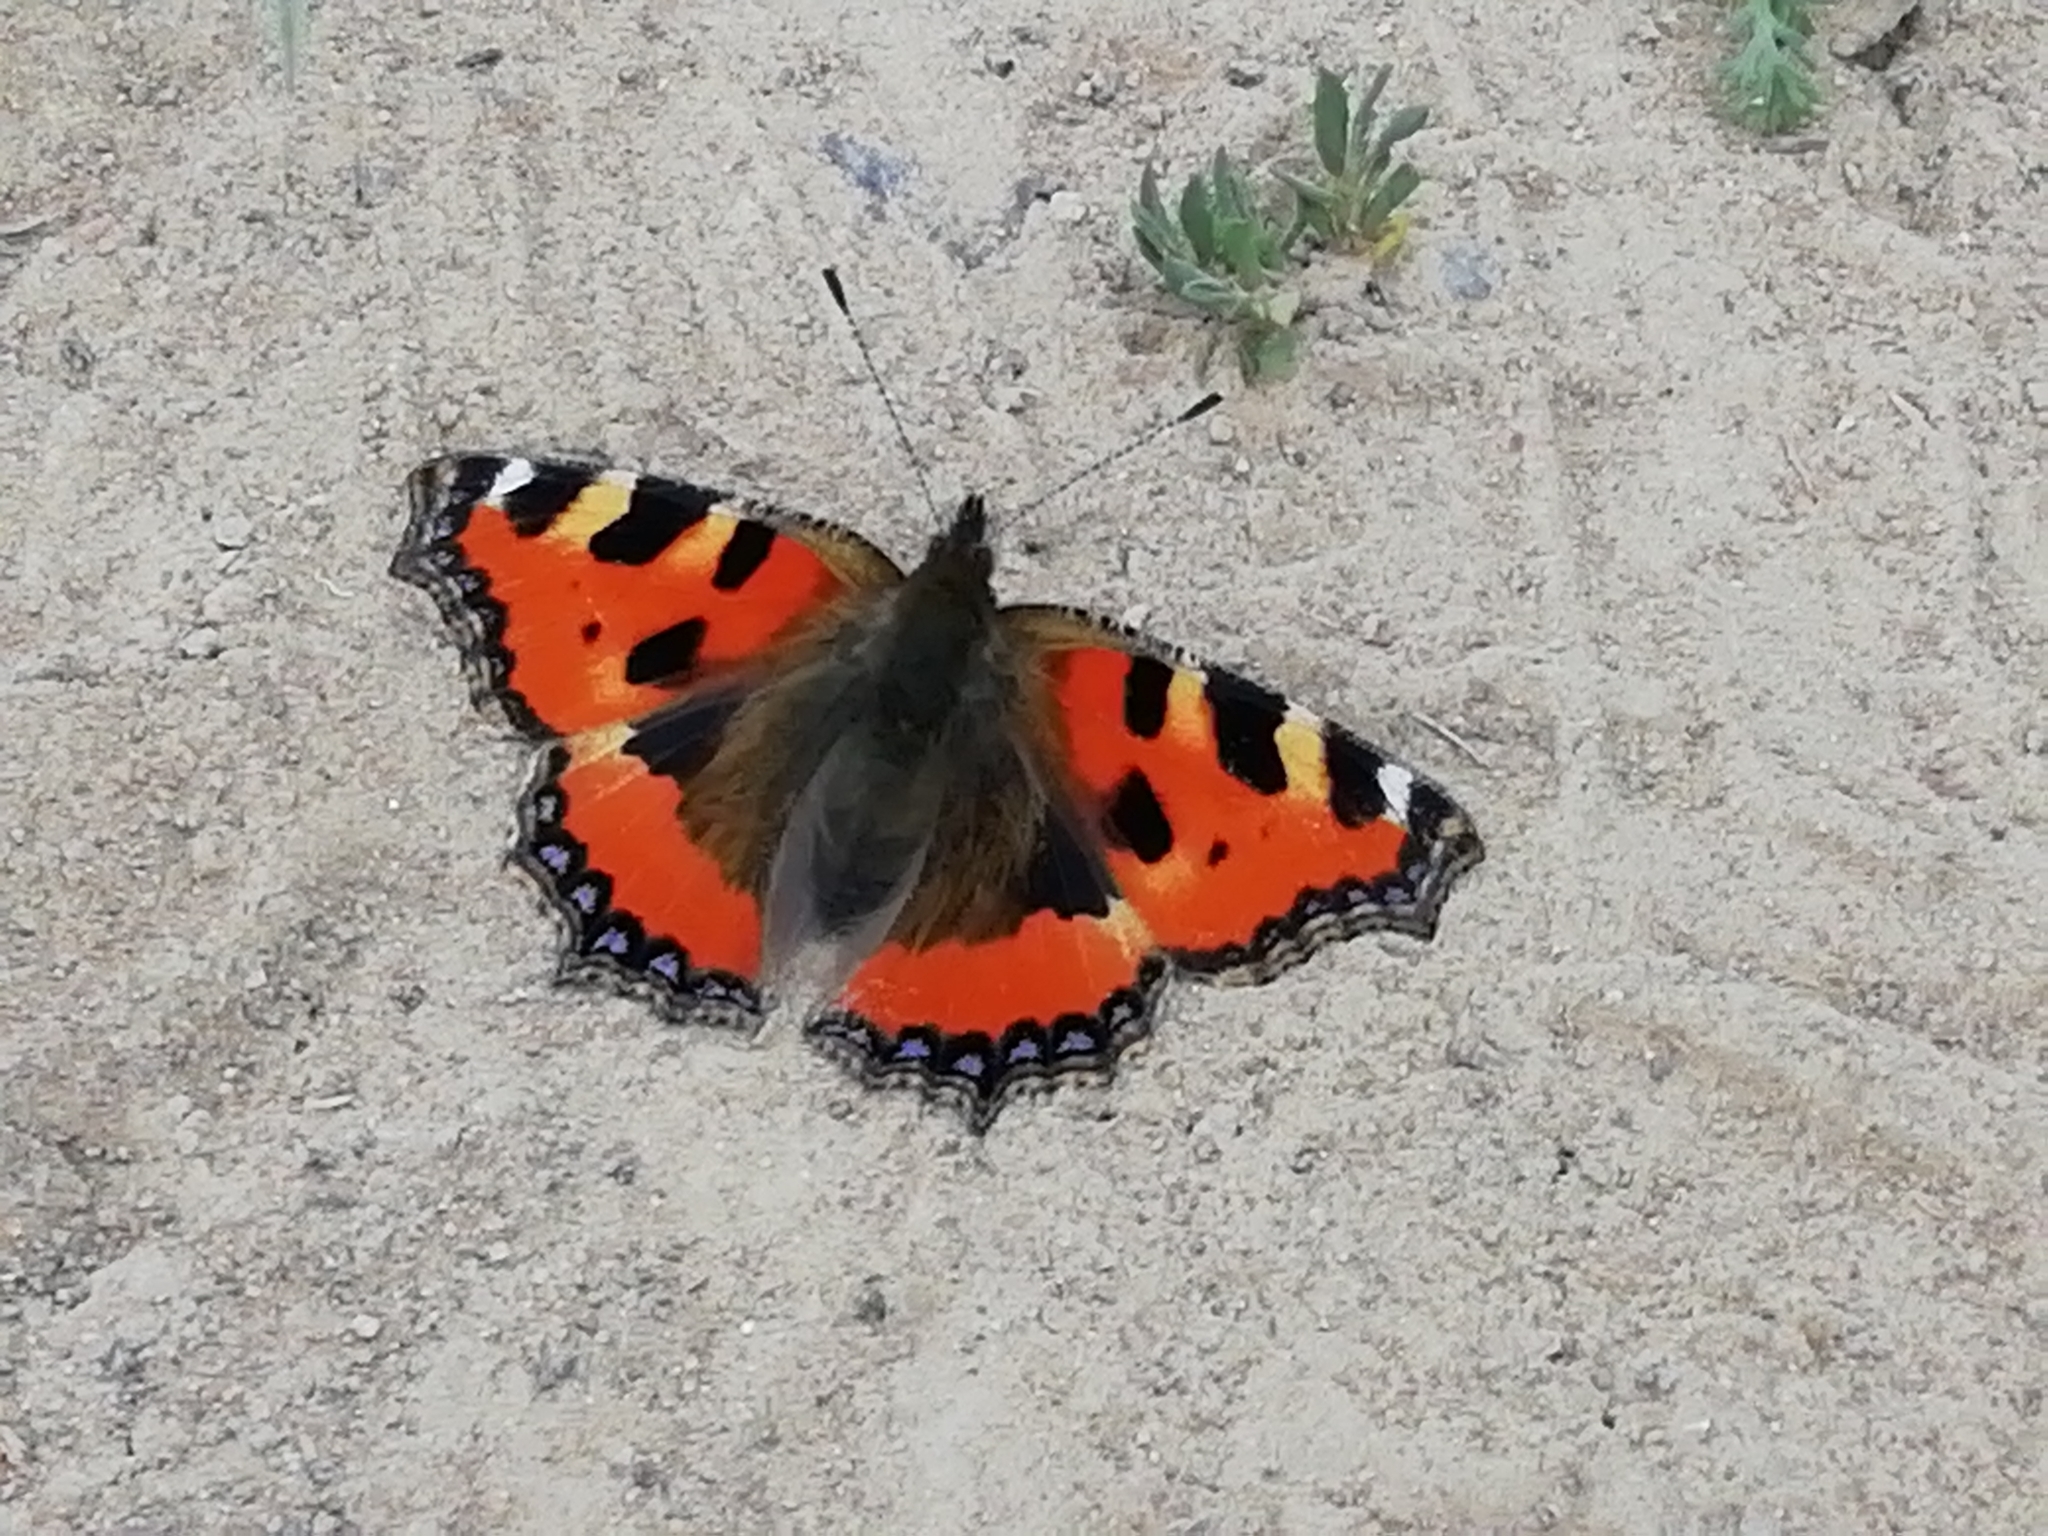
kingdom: Animalia
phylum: Arthropoda
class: Insecta
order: Lepidoptera
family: Nymphalidae
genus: Aglais
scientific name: Aglais urticae
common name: Small tortoiseshell
